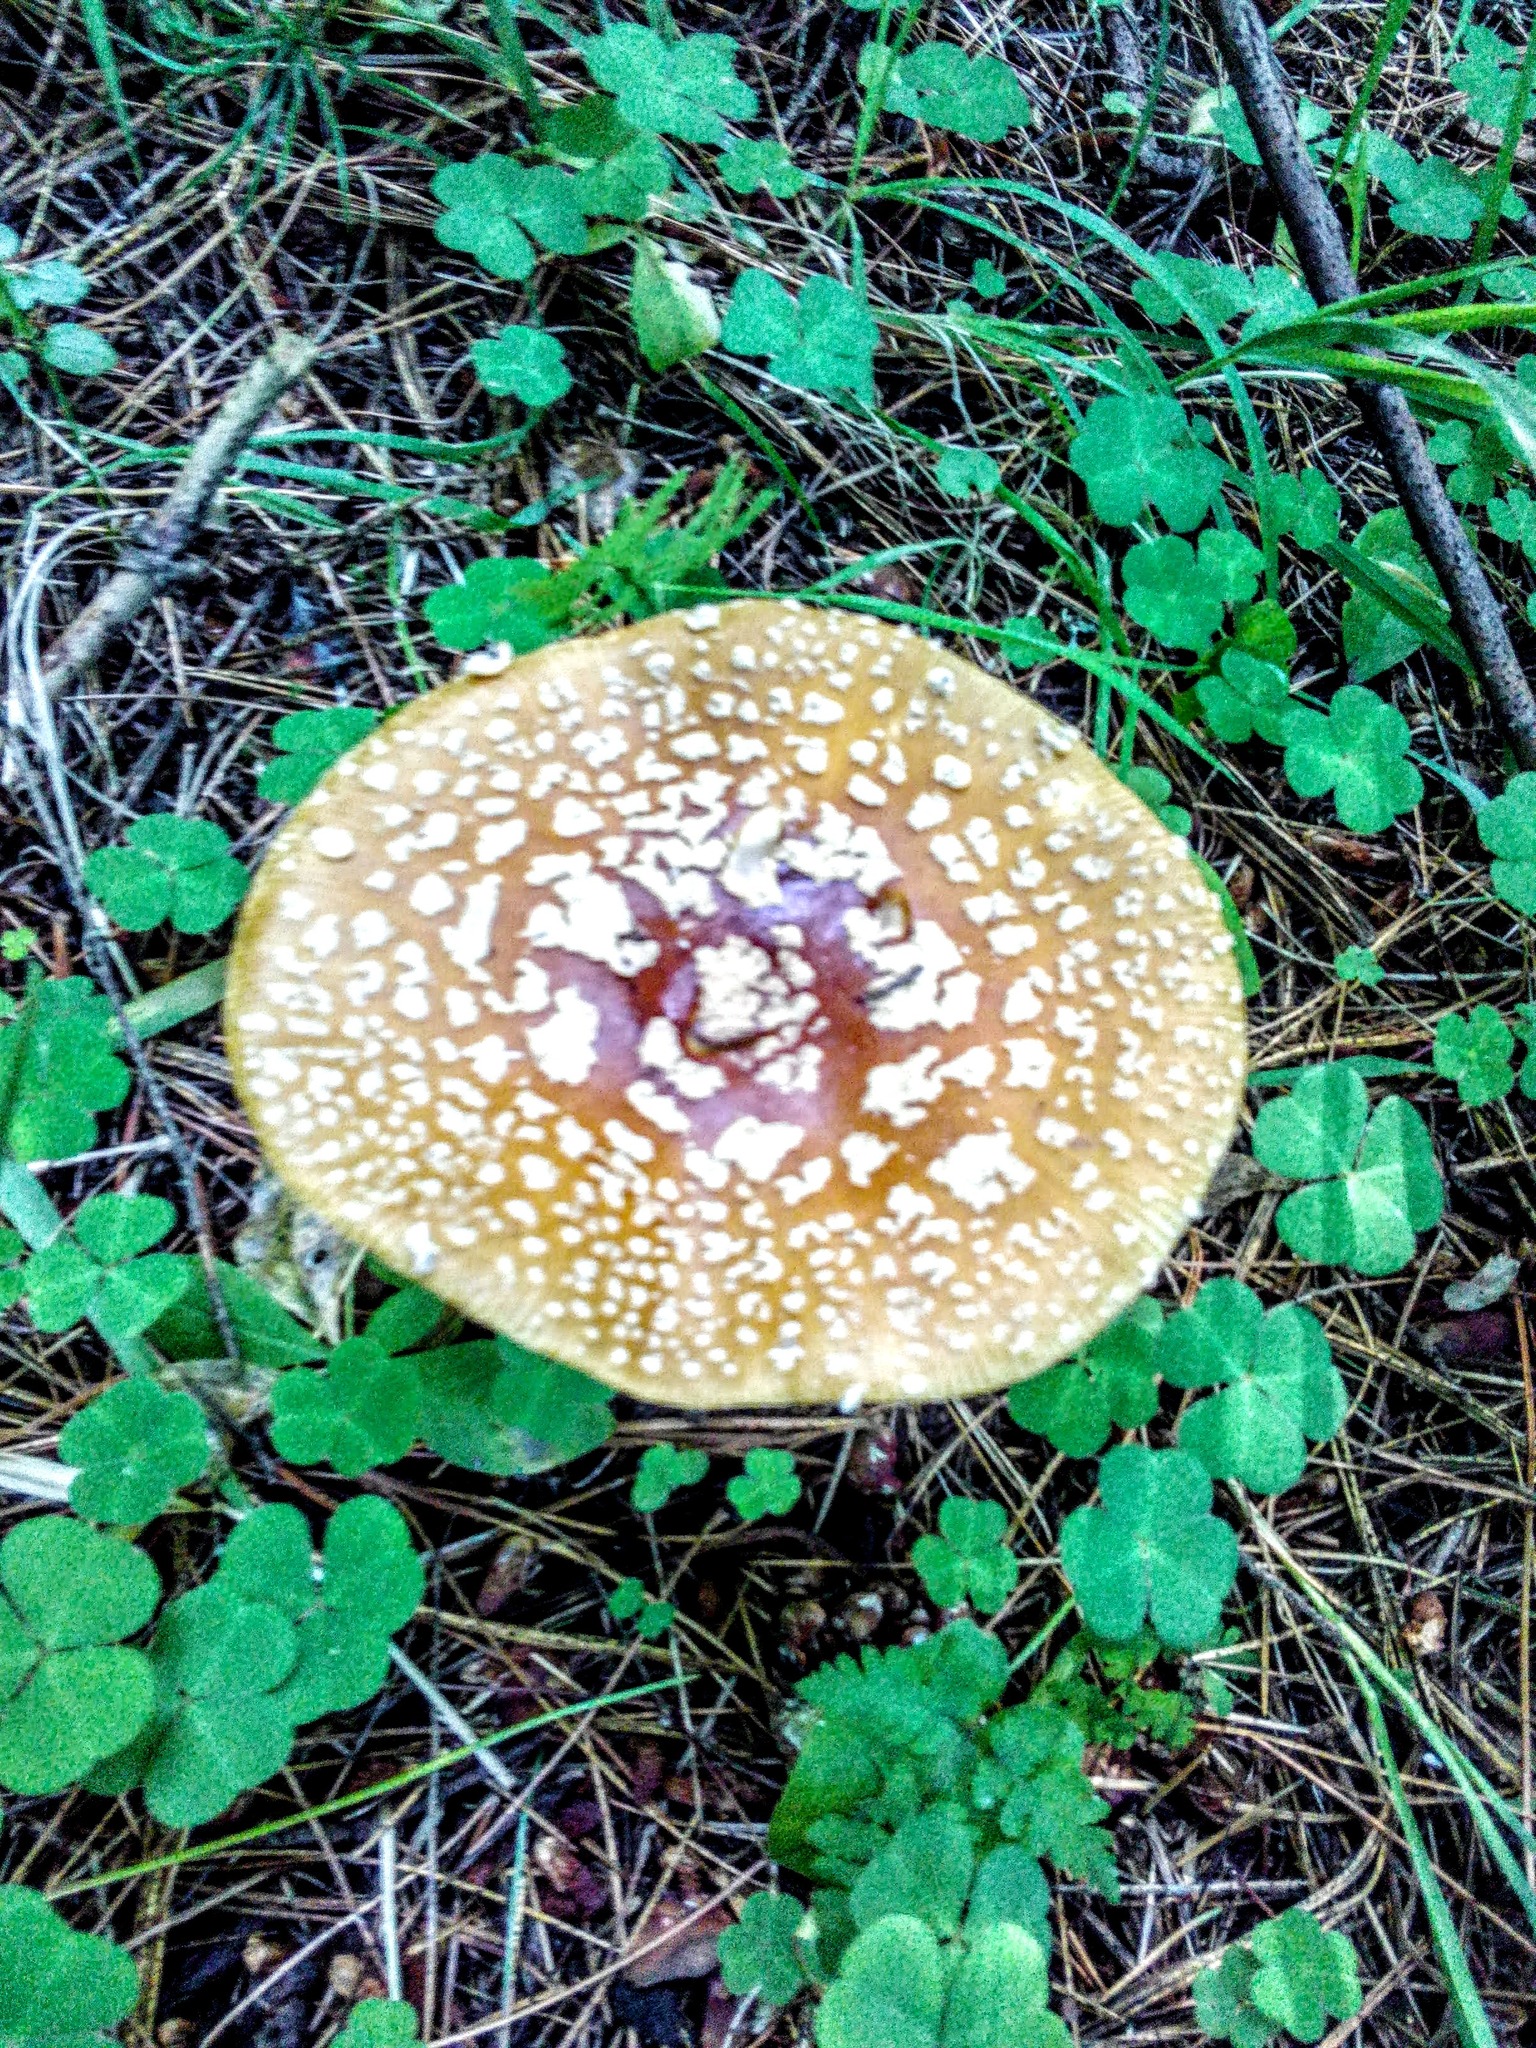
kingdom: Fungi
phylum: Basidiomycota
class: Agaricomycetes
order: Agaricales
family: Amanitaceae
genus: Amanita
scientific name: Amanita regalis
